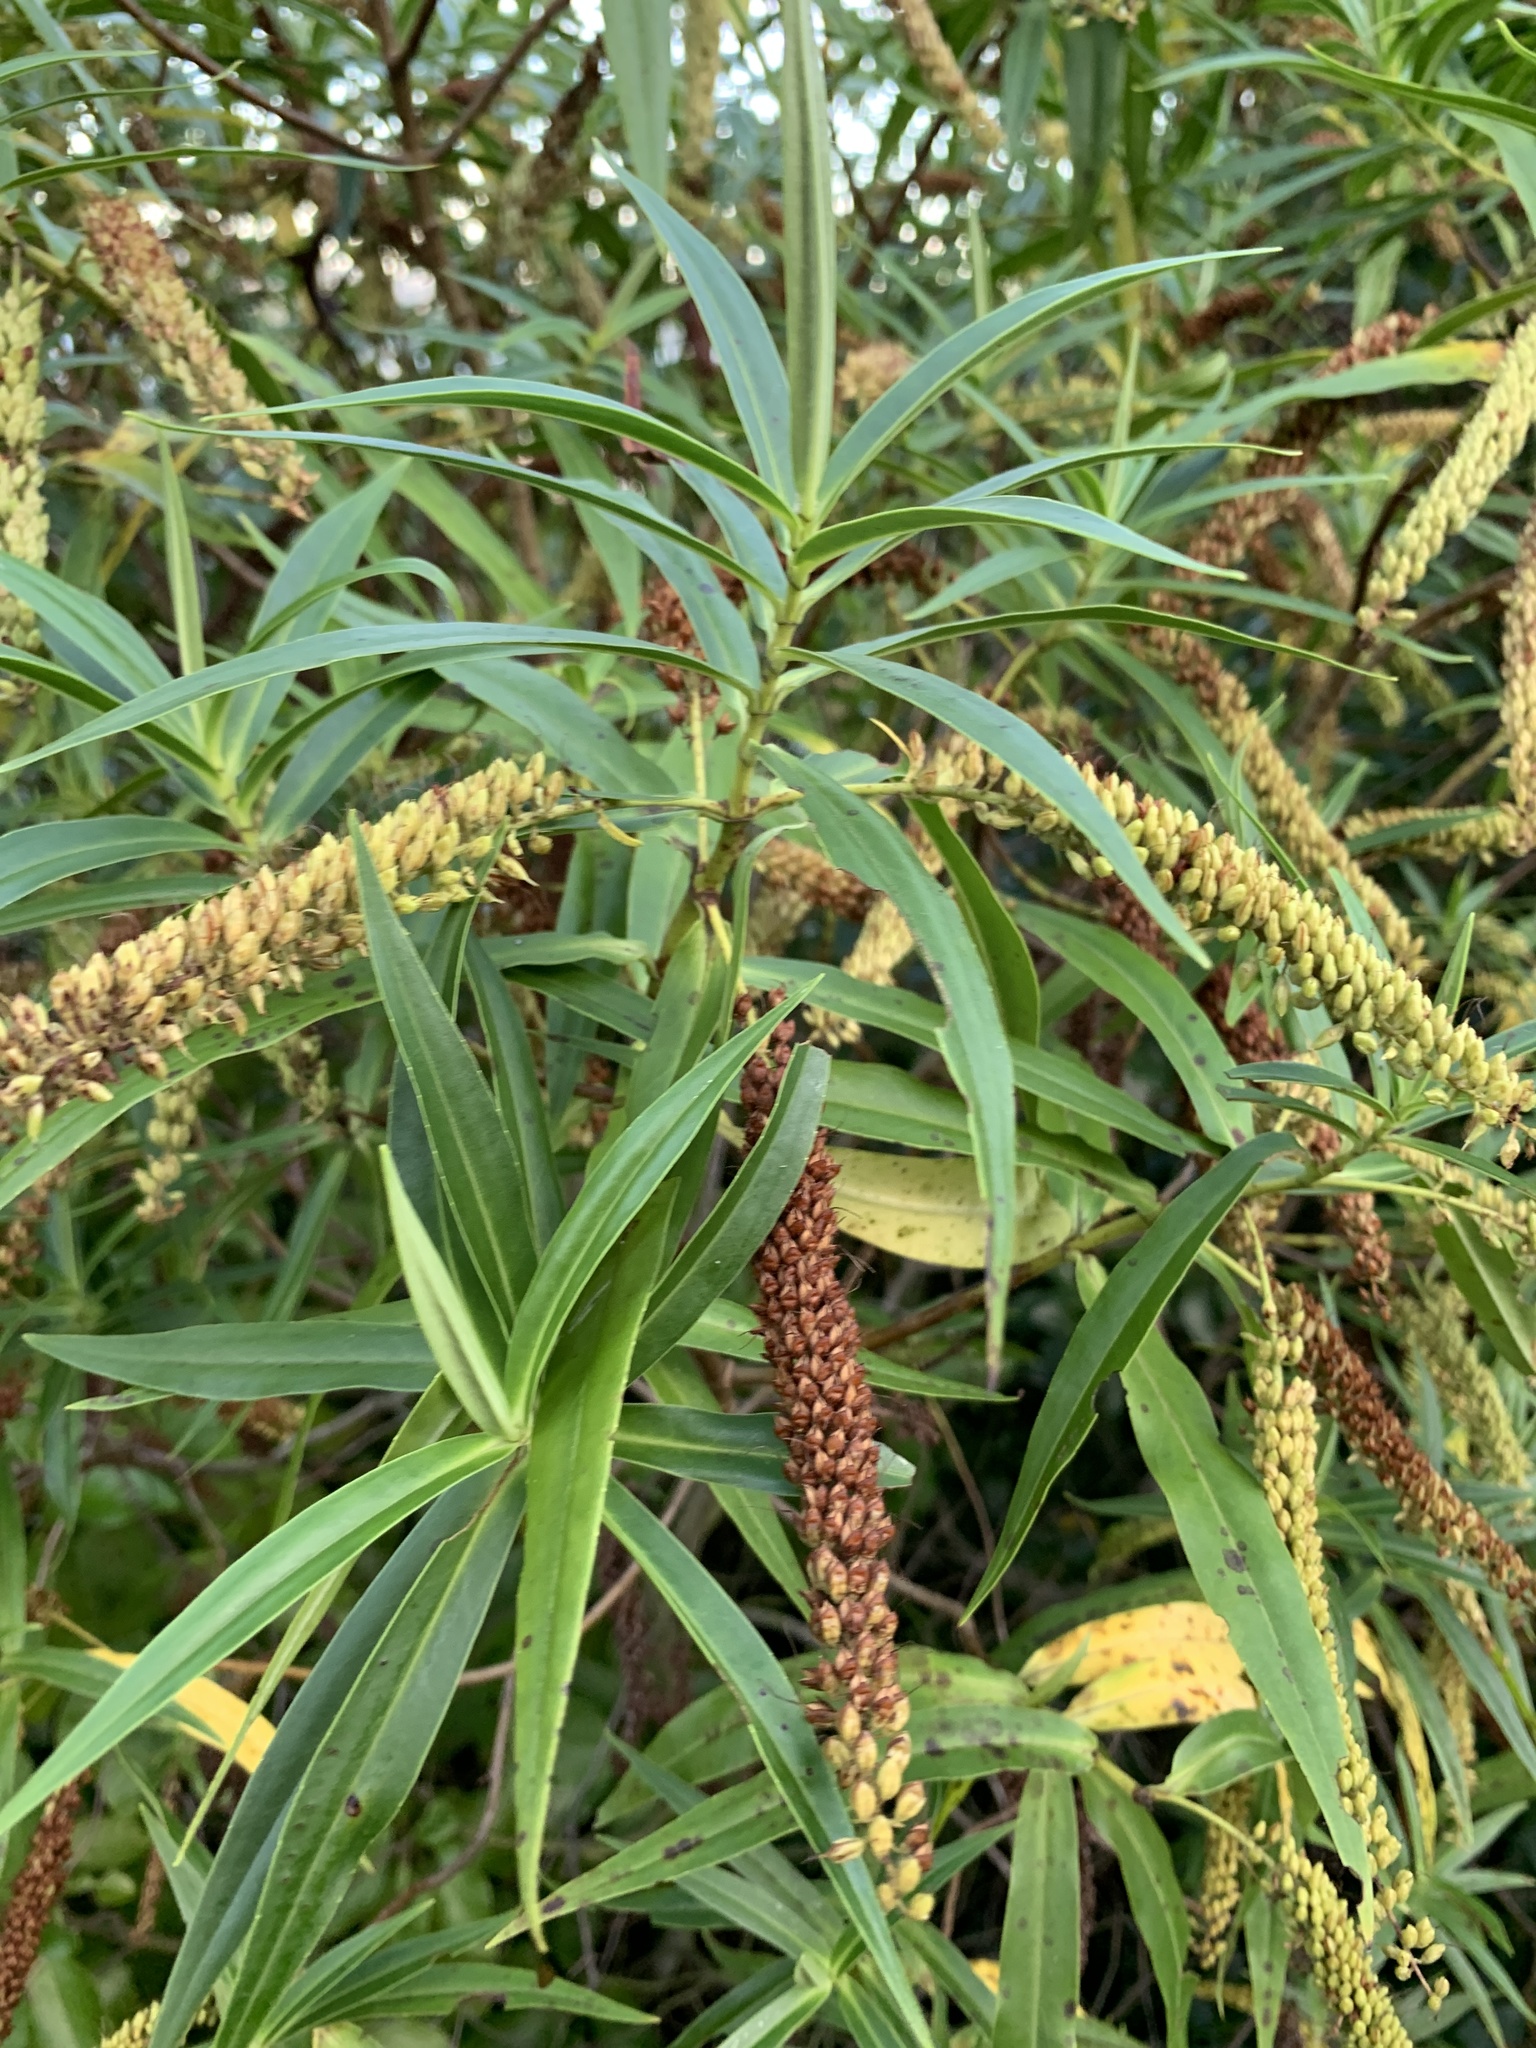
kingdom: Plantae
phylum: Tracheophyta
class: Magnoliopsida
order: Lamiales
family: Plantaginaceae
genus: Veronica
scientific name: Veronica salicifolia
